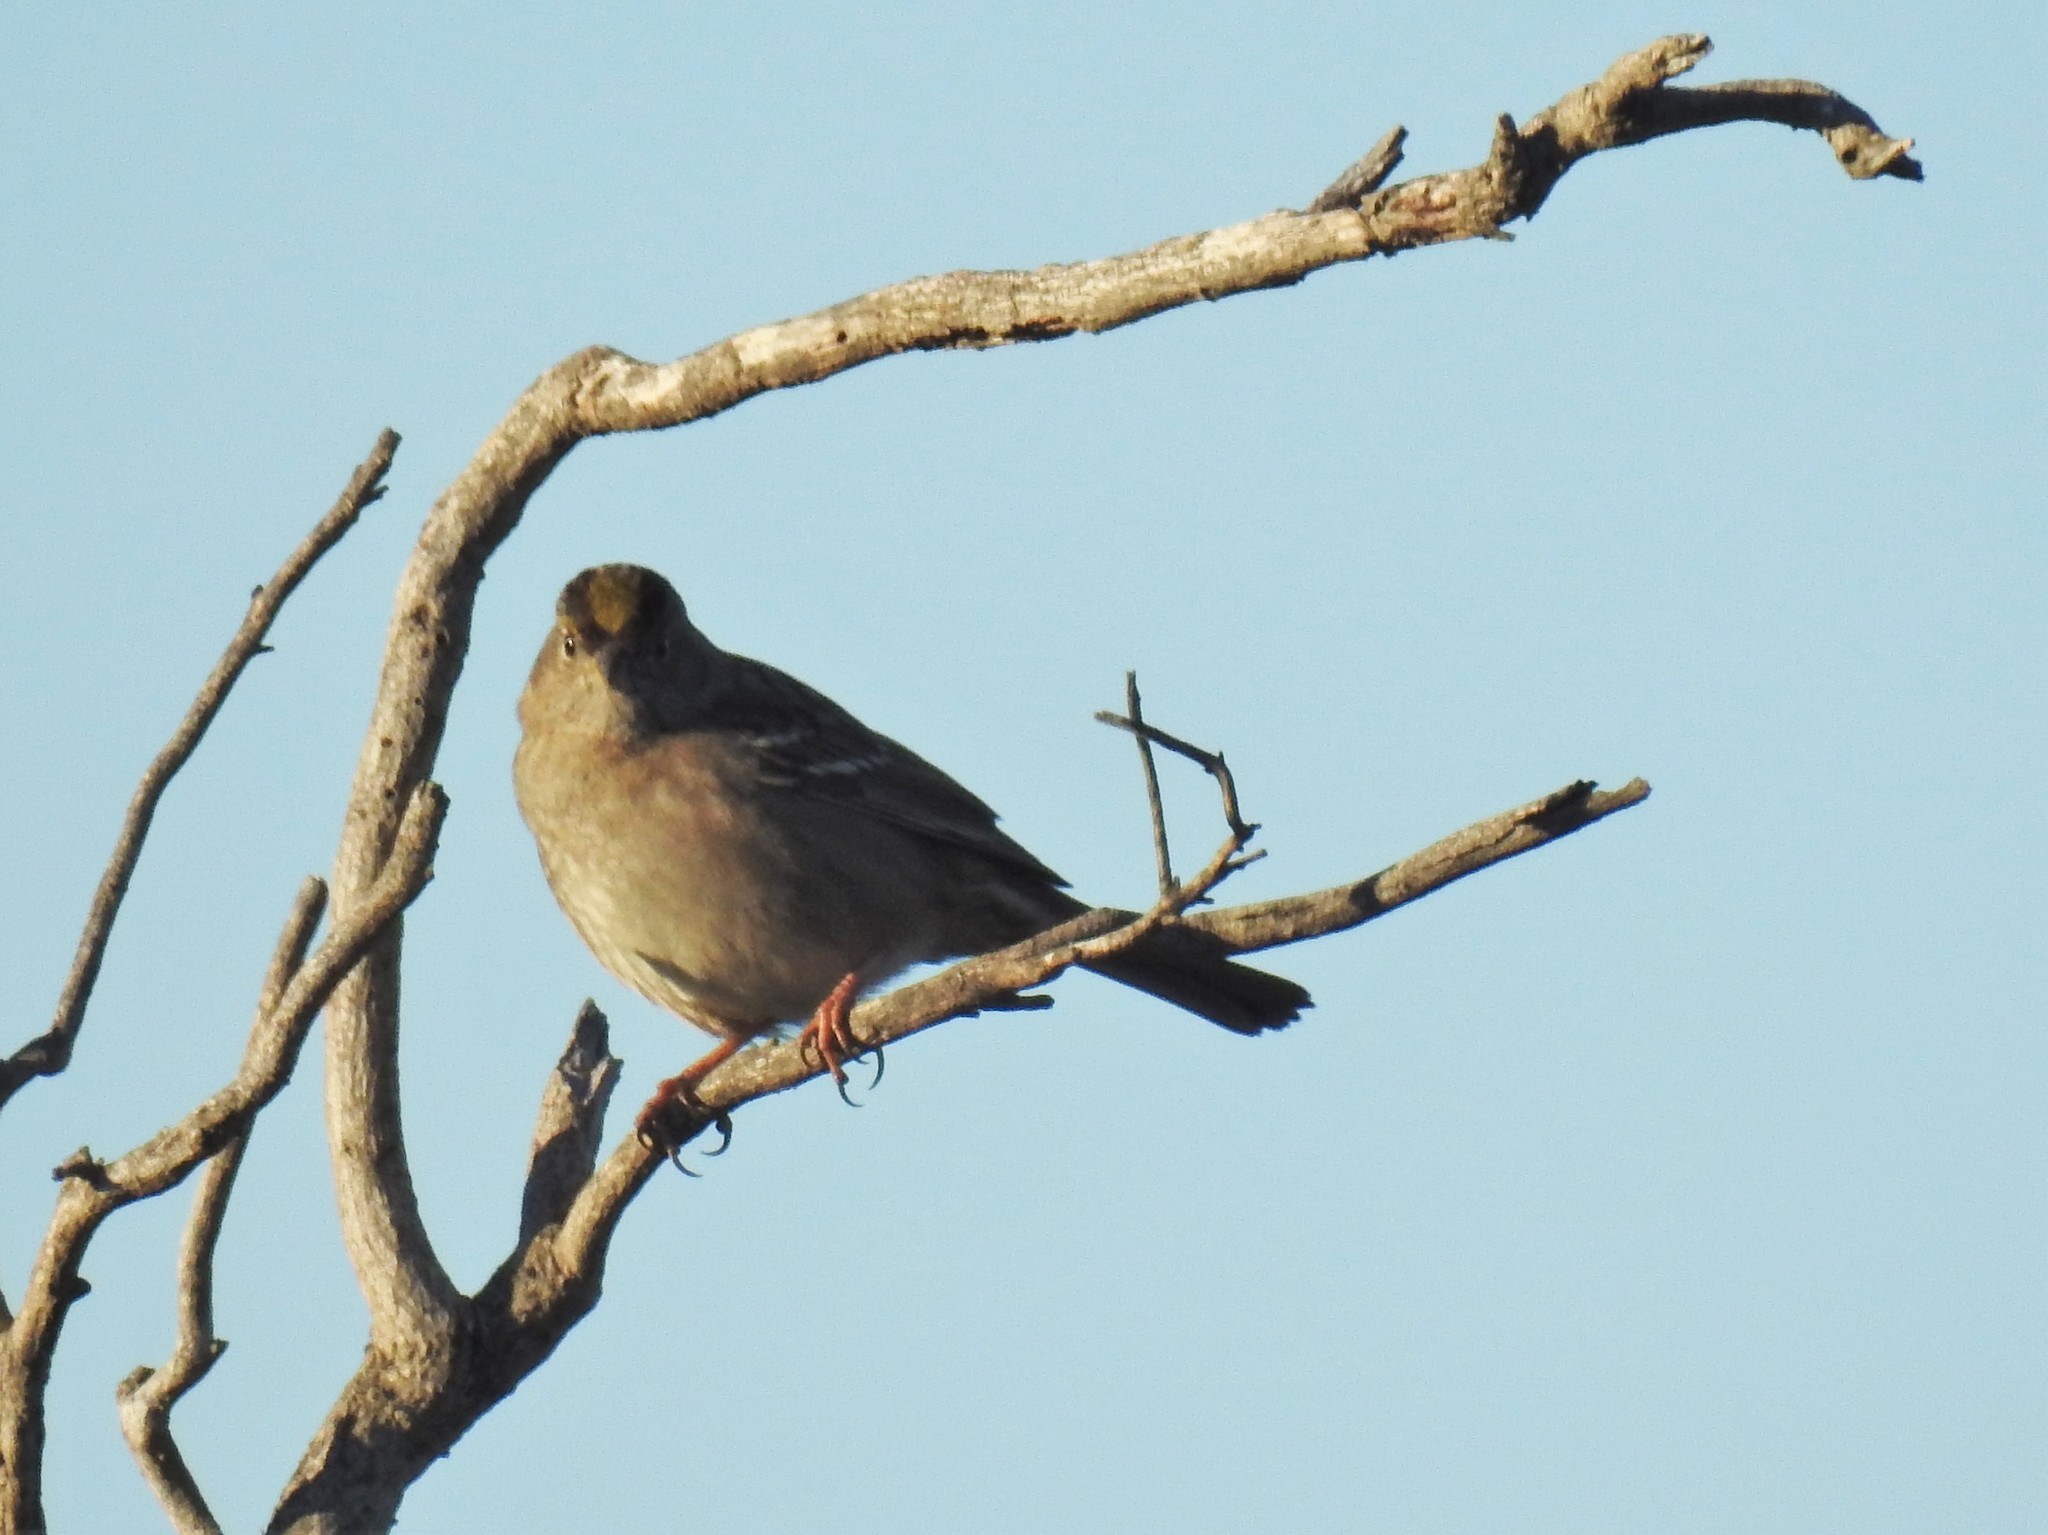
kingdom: Animalia
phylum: Chordata
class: Aves
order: Passeriformes
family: Passerellidae
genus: Zonotrichia
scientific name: Zonotrichia atricapilla
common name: Golden-crowned sparrow
